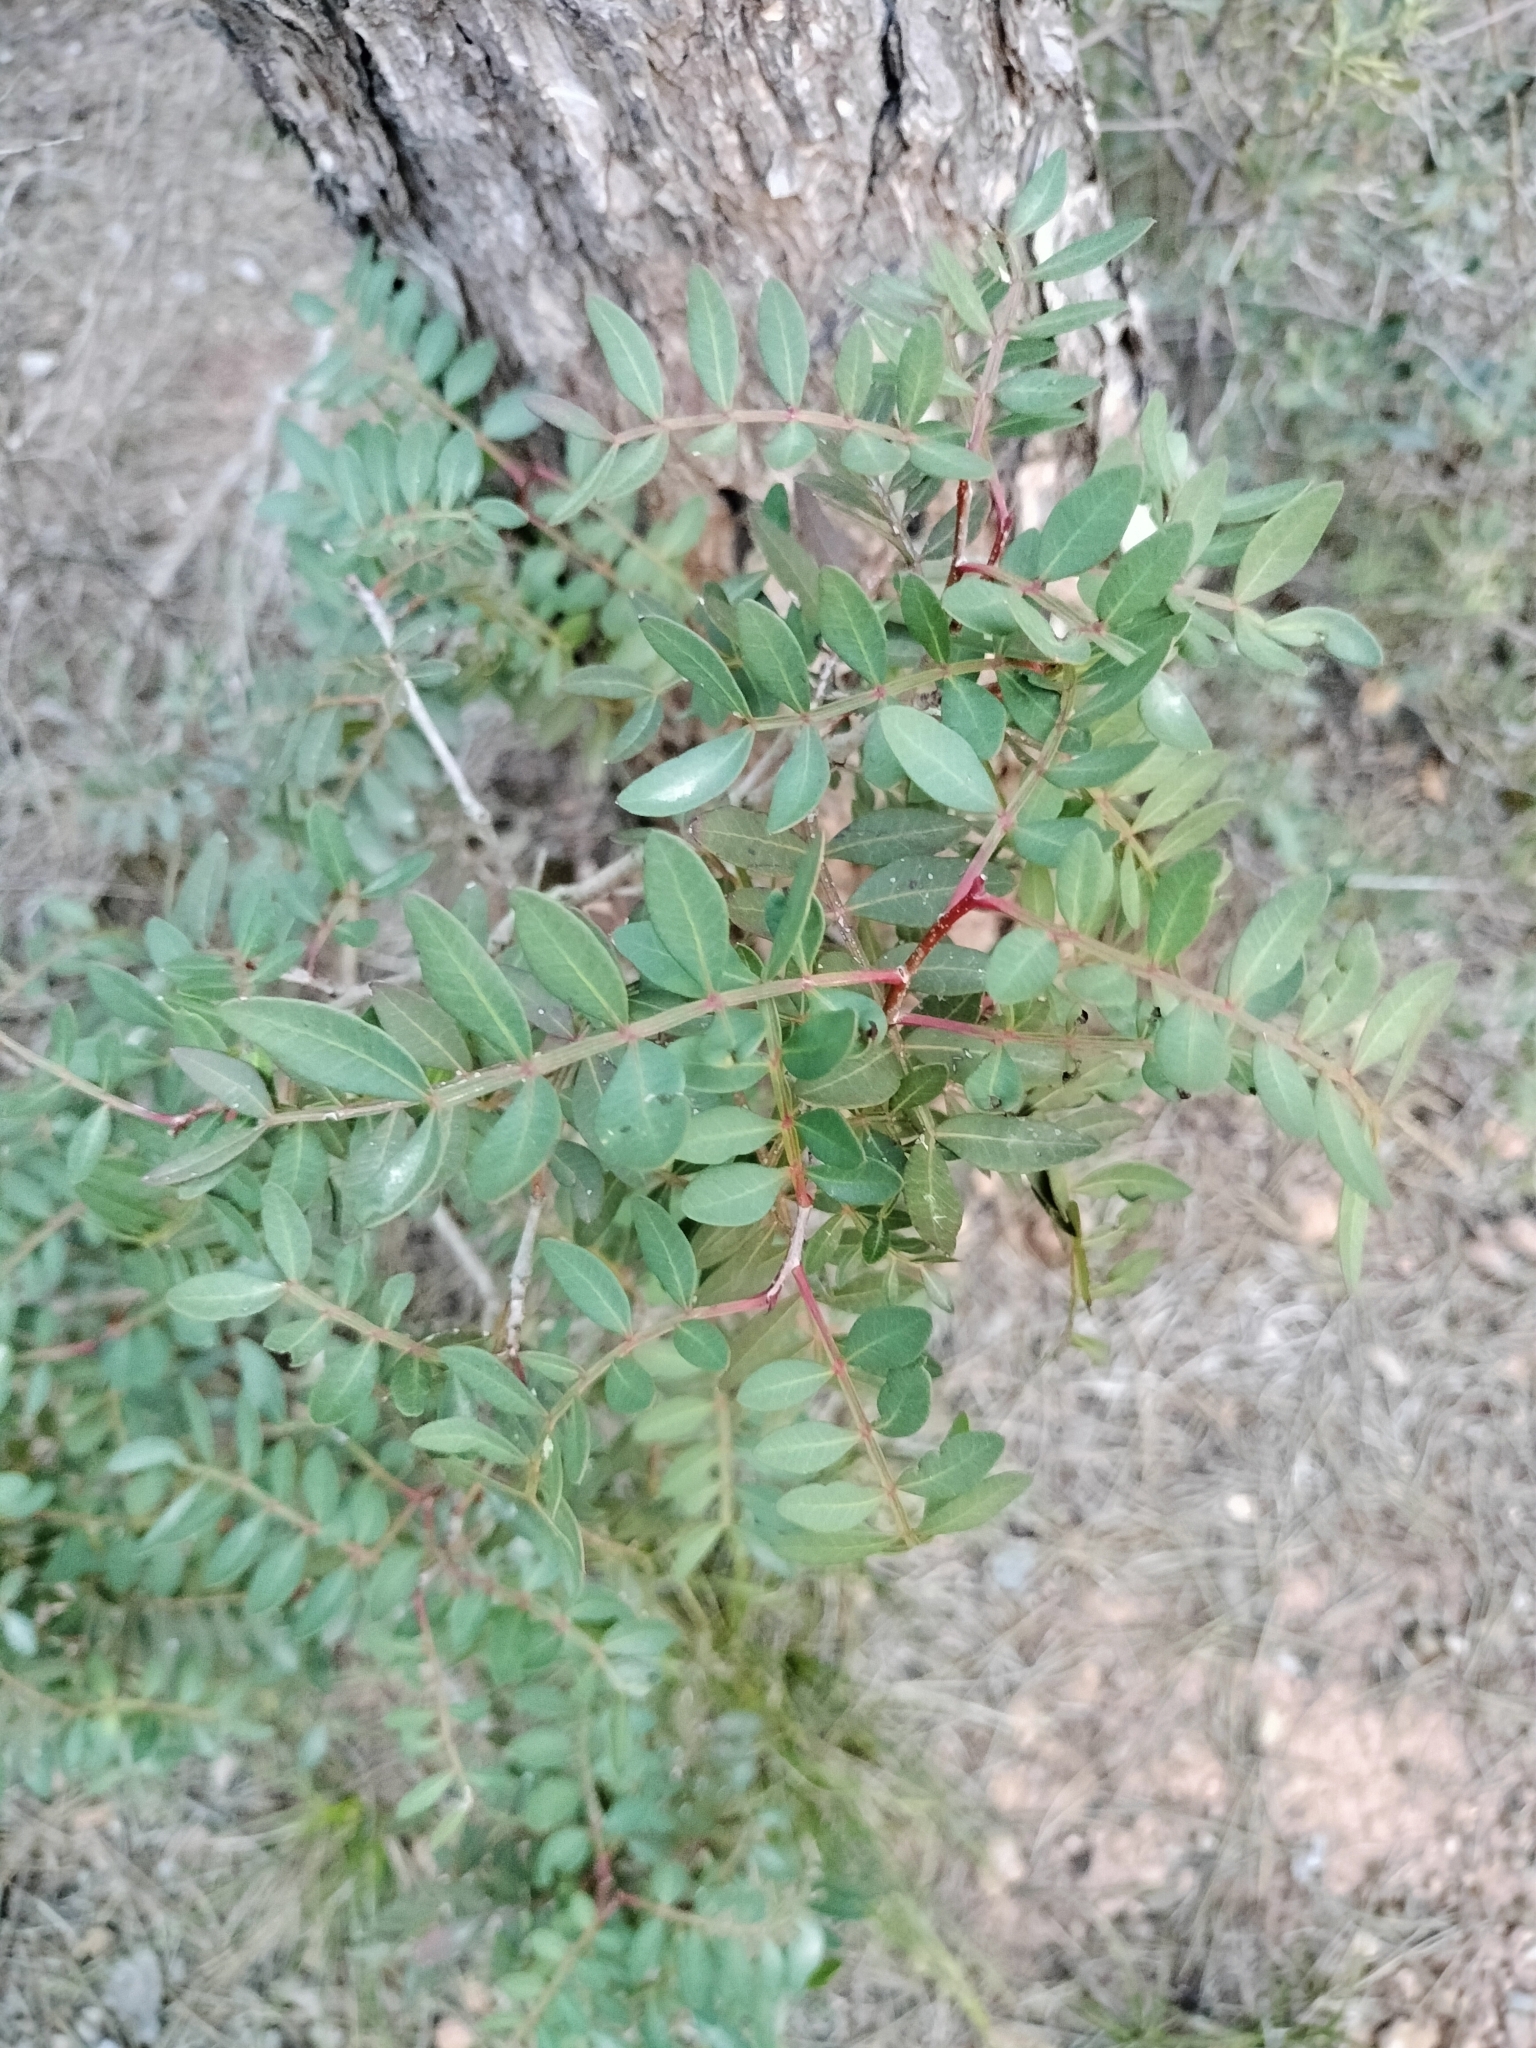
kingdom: Plantae
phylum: Tracheophyta
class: Magnoliopsida
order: Sapindales
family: Anacardiaceae
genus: Pistacia
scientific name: Pistacia lentiscus
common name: Lentisk
